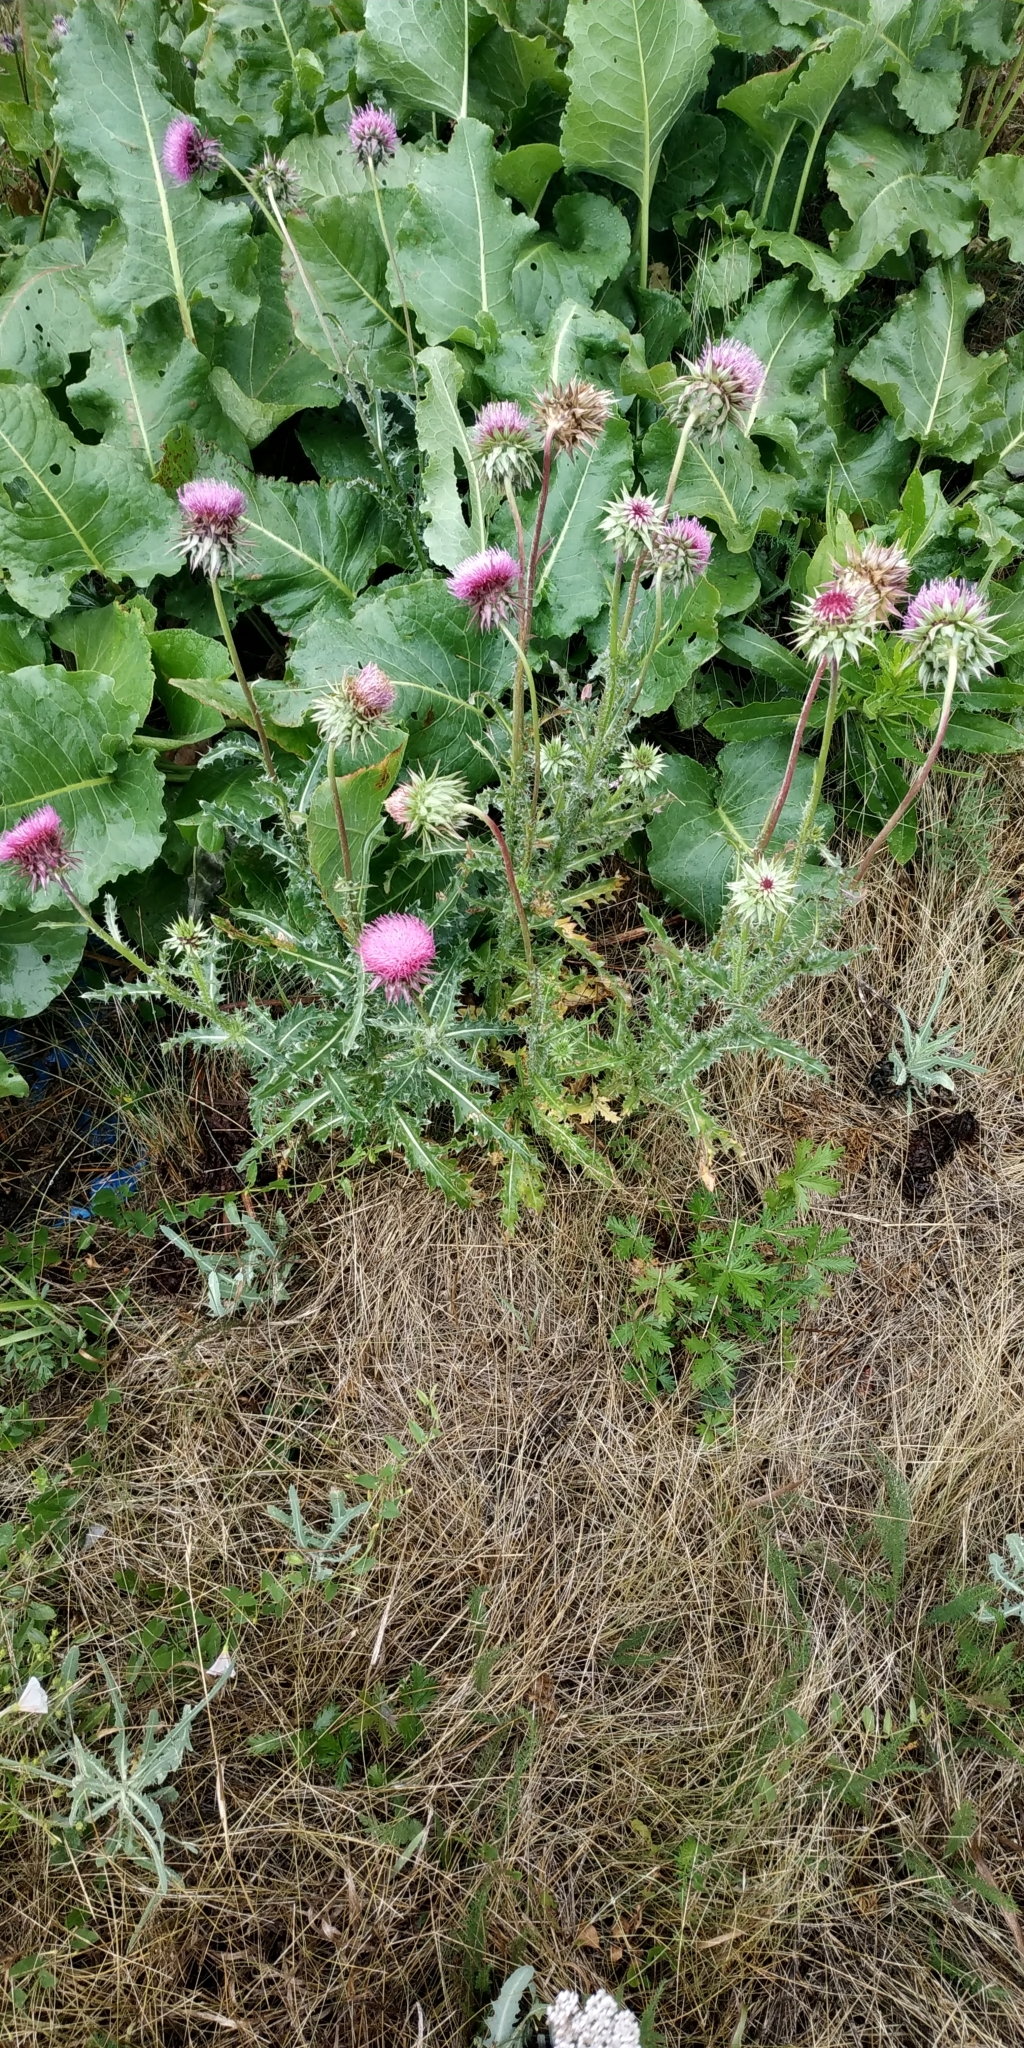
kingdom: Plantae
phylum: Tracheophyta
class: Magnoliopsida
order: Asterales
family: Asteraceae
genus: Carduus
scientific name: Carduus nutans
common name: Musk thistle
